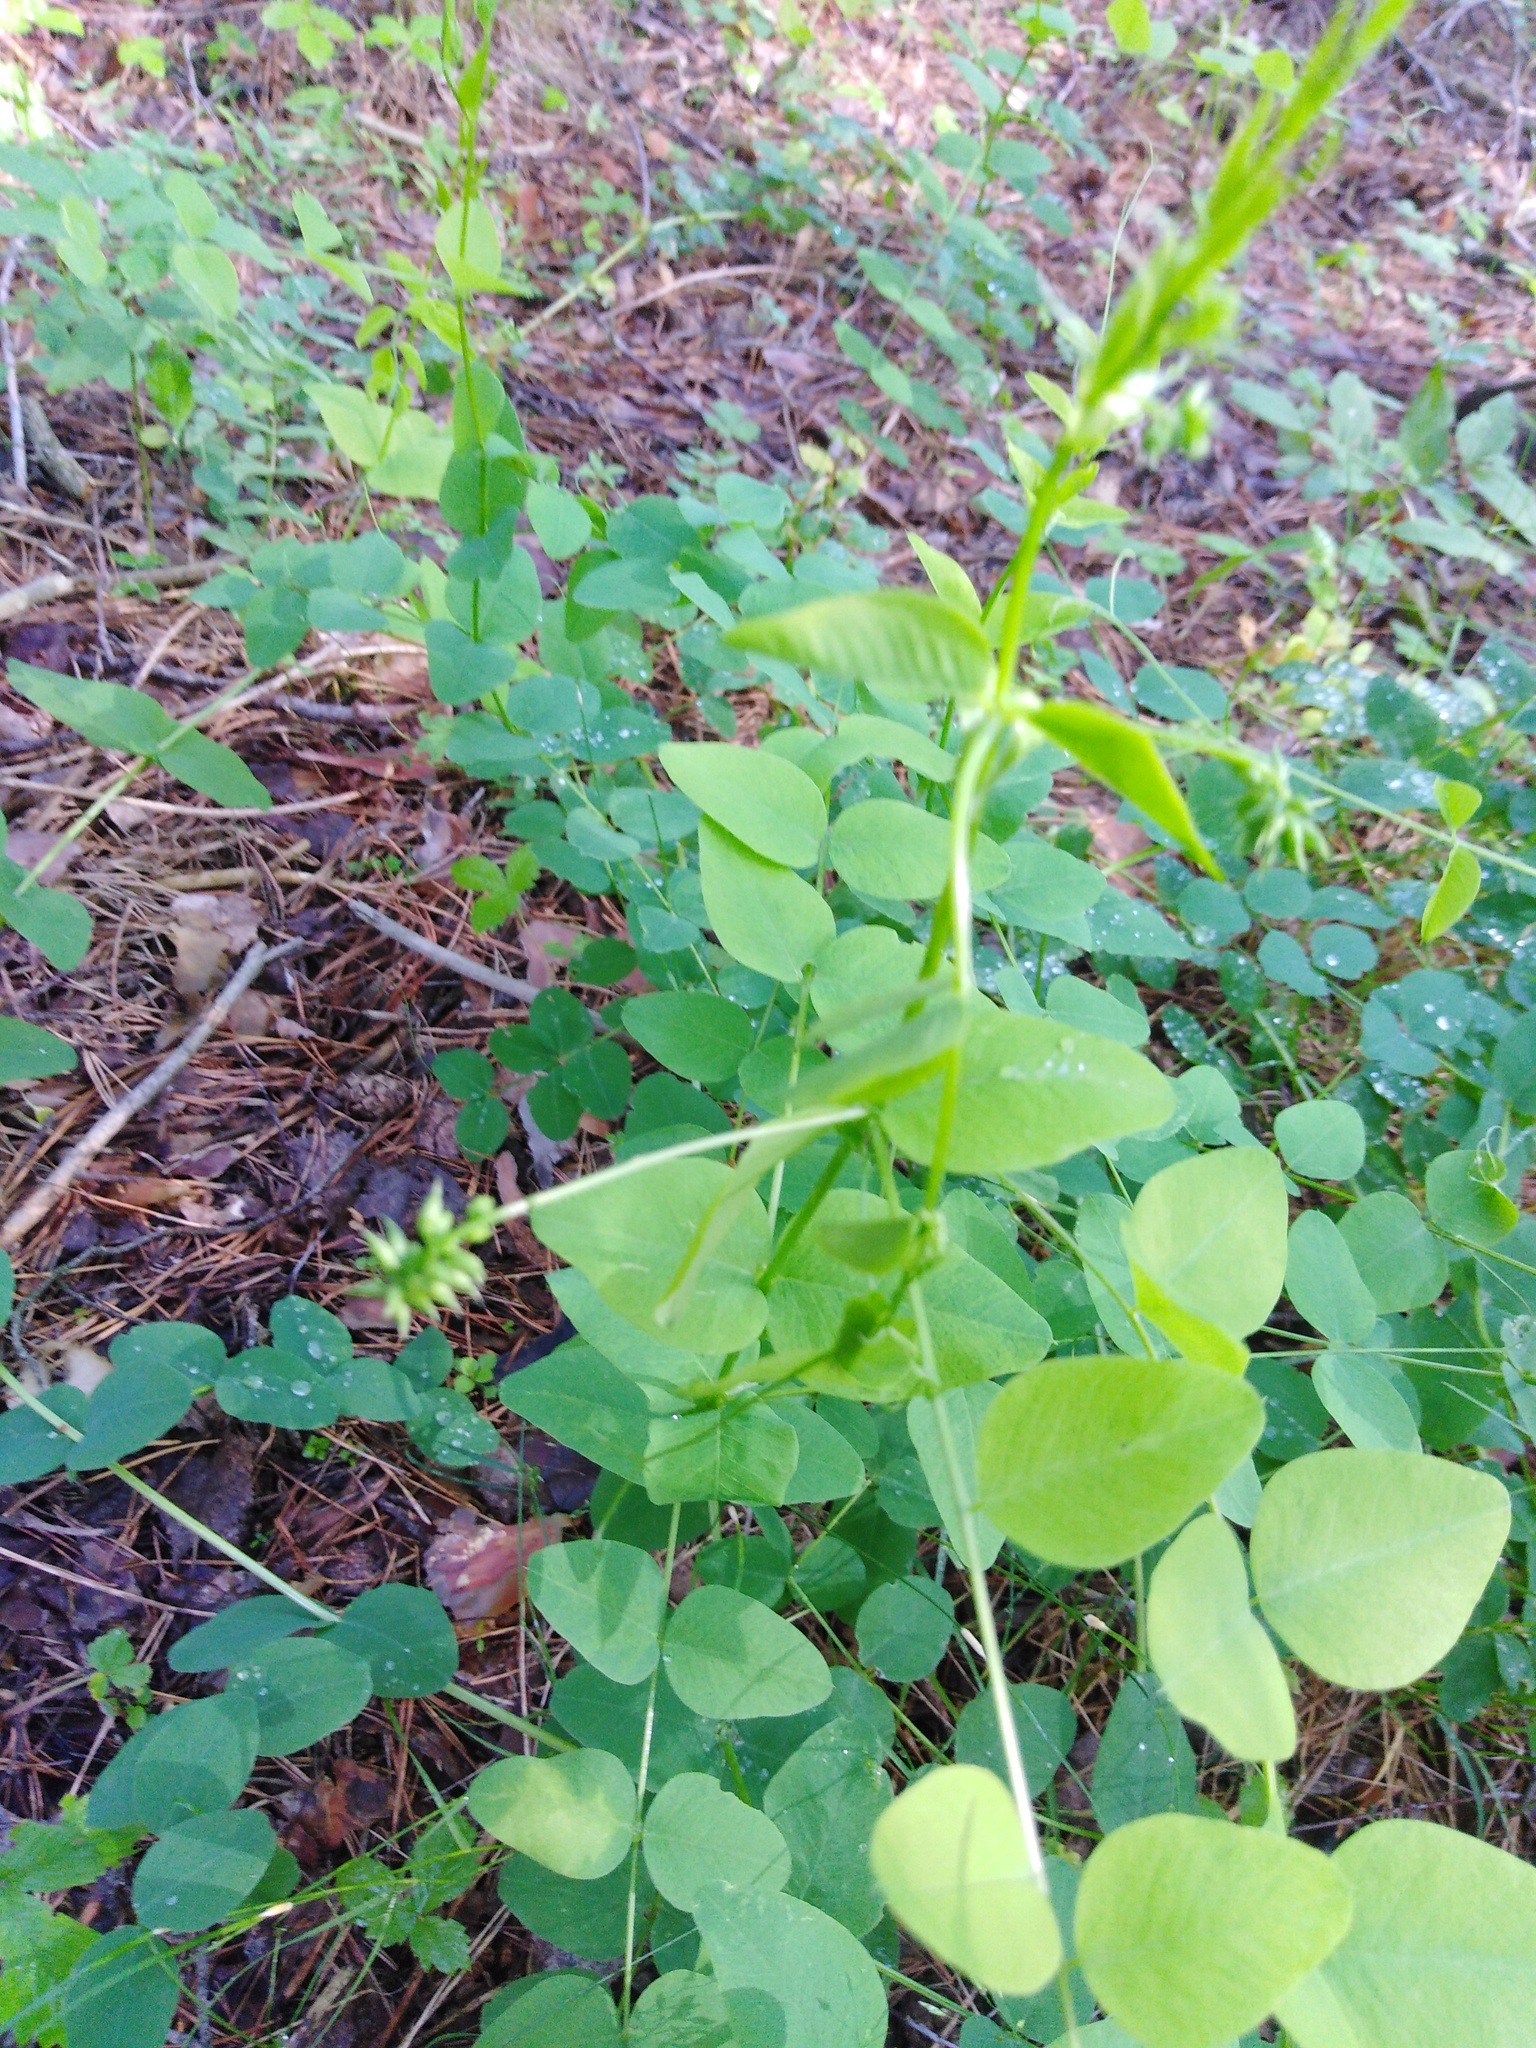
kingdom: Plantae
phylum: Tracheophyta
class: Magnoliopsida
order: Fabales
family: Fabaceae
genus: Vicia
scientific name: Vicia pisiformis
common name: Pale-flower vetch
